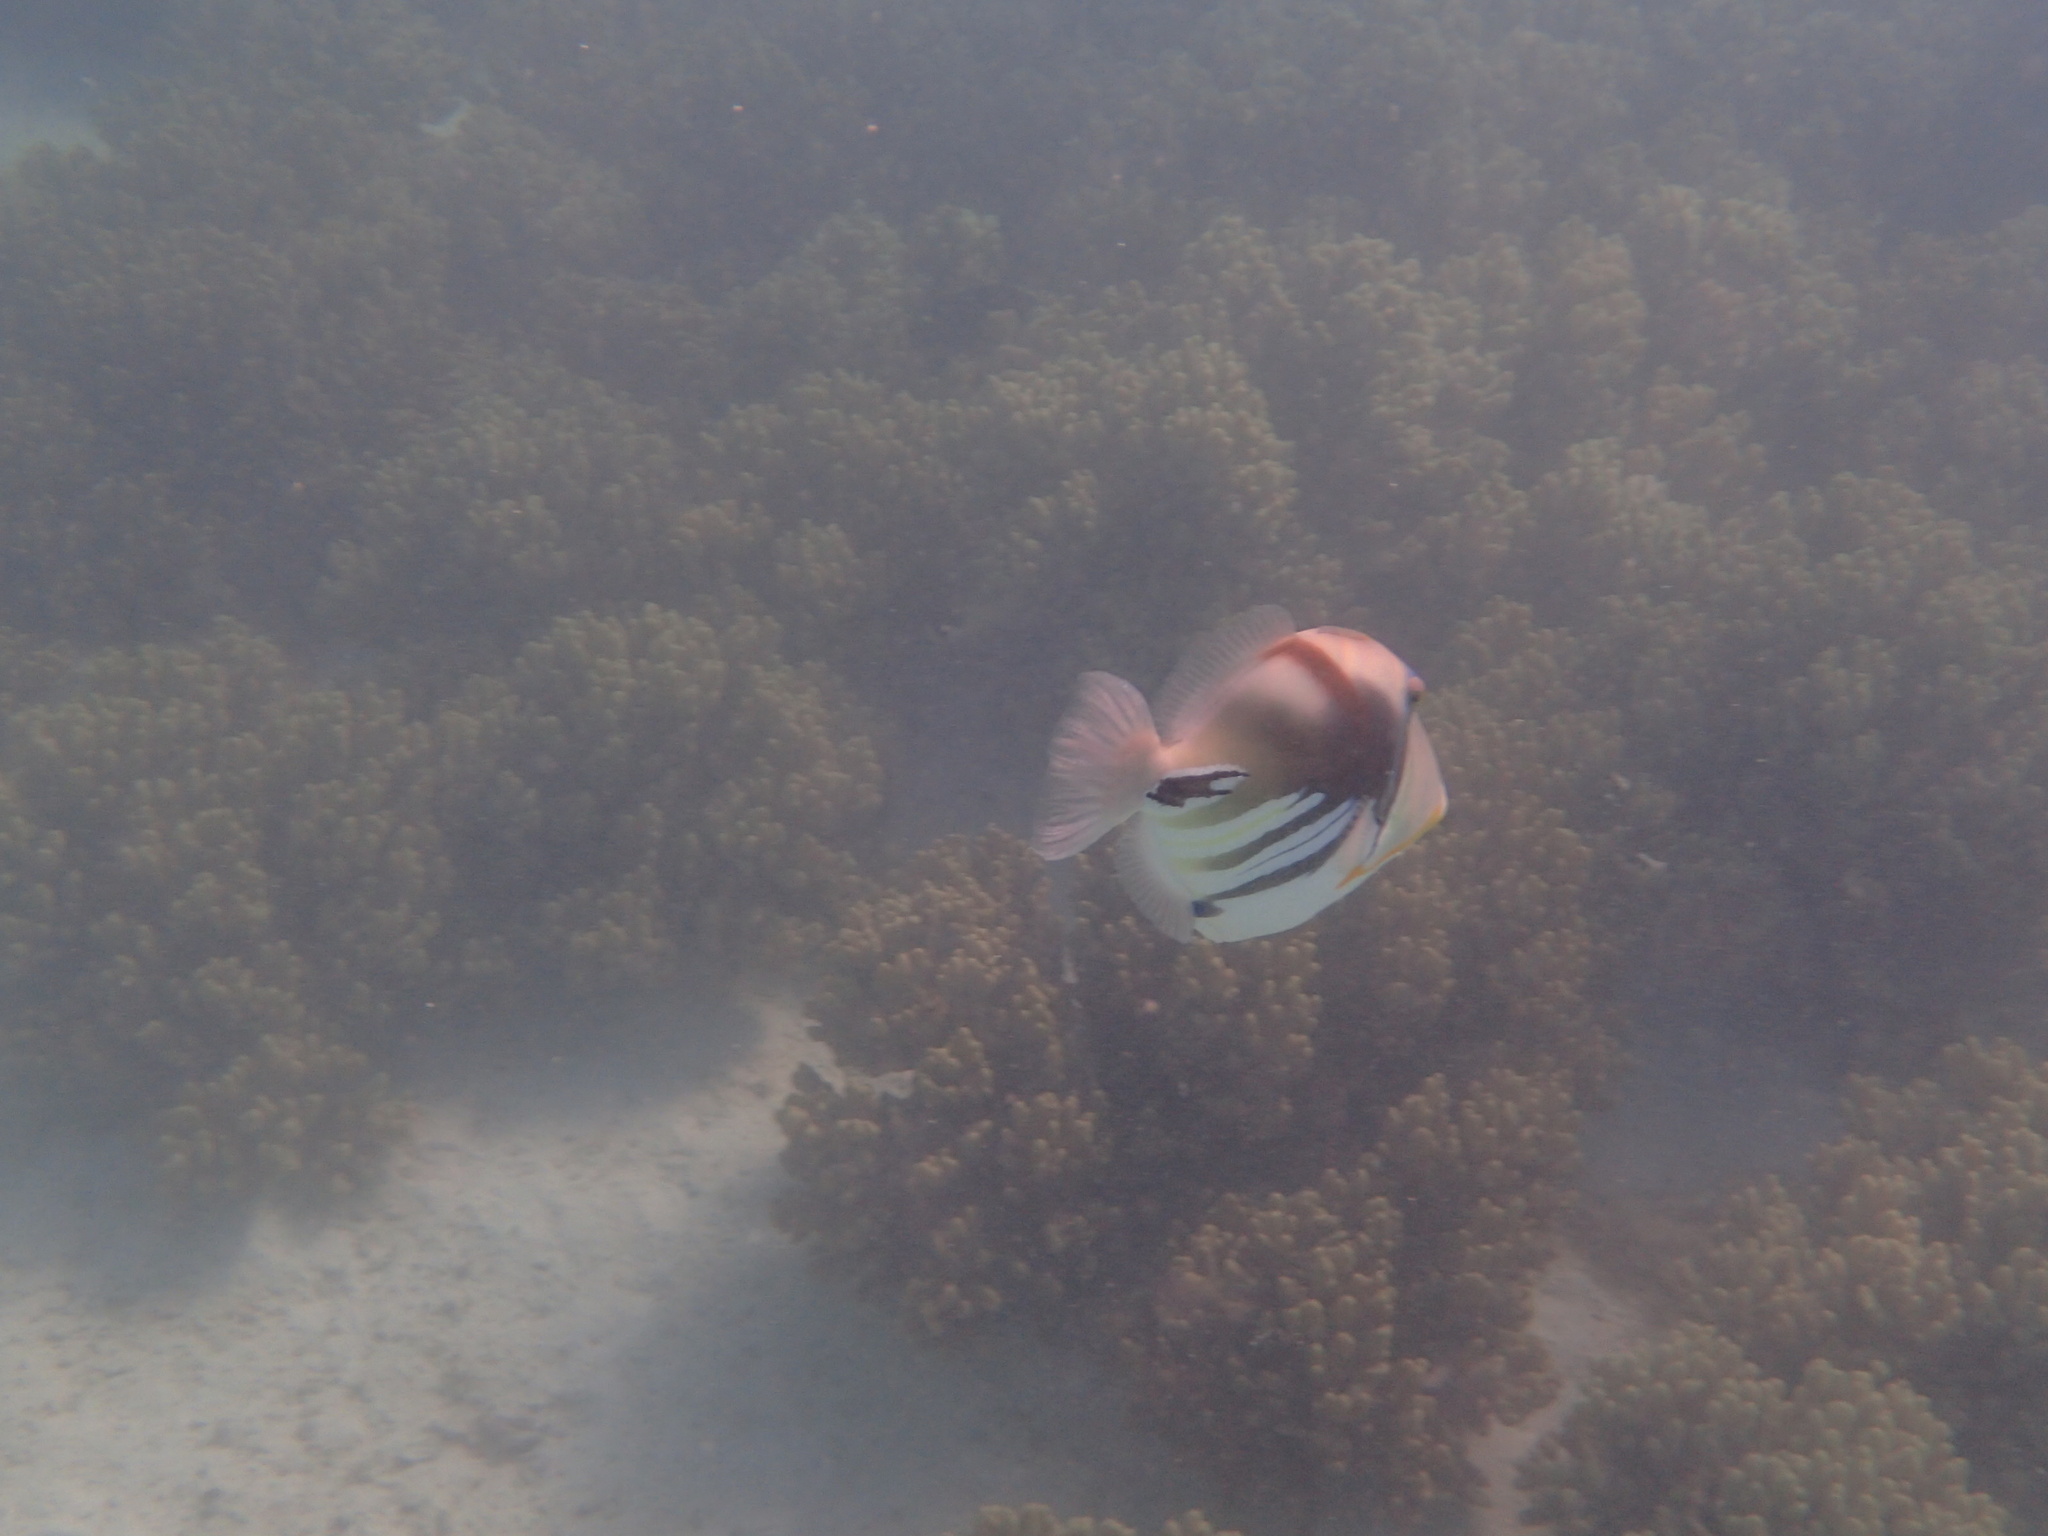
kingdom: Animalia
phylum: Chordata
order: Tetraodontiformes
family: Balistidae
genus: Rhinecanthus
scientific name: Rhinecanthus aculeatus
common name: White-banded triggerfish
